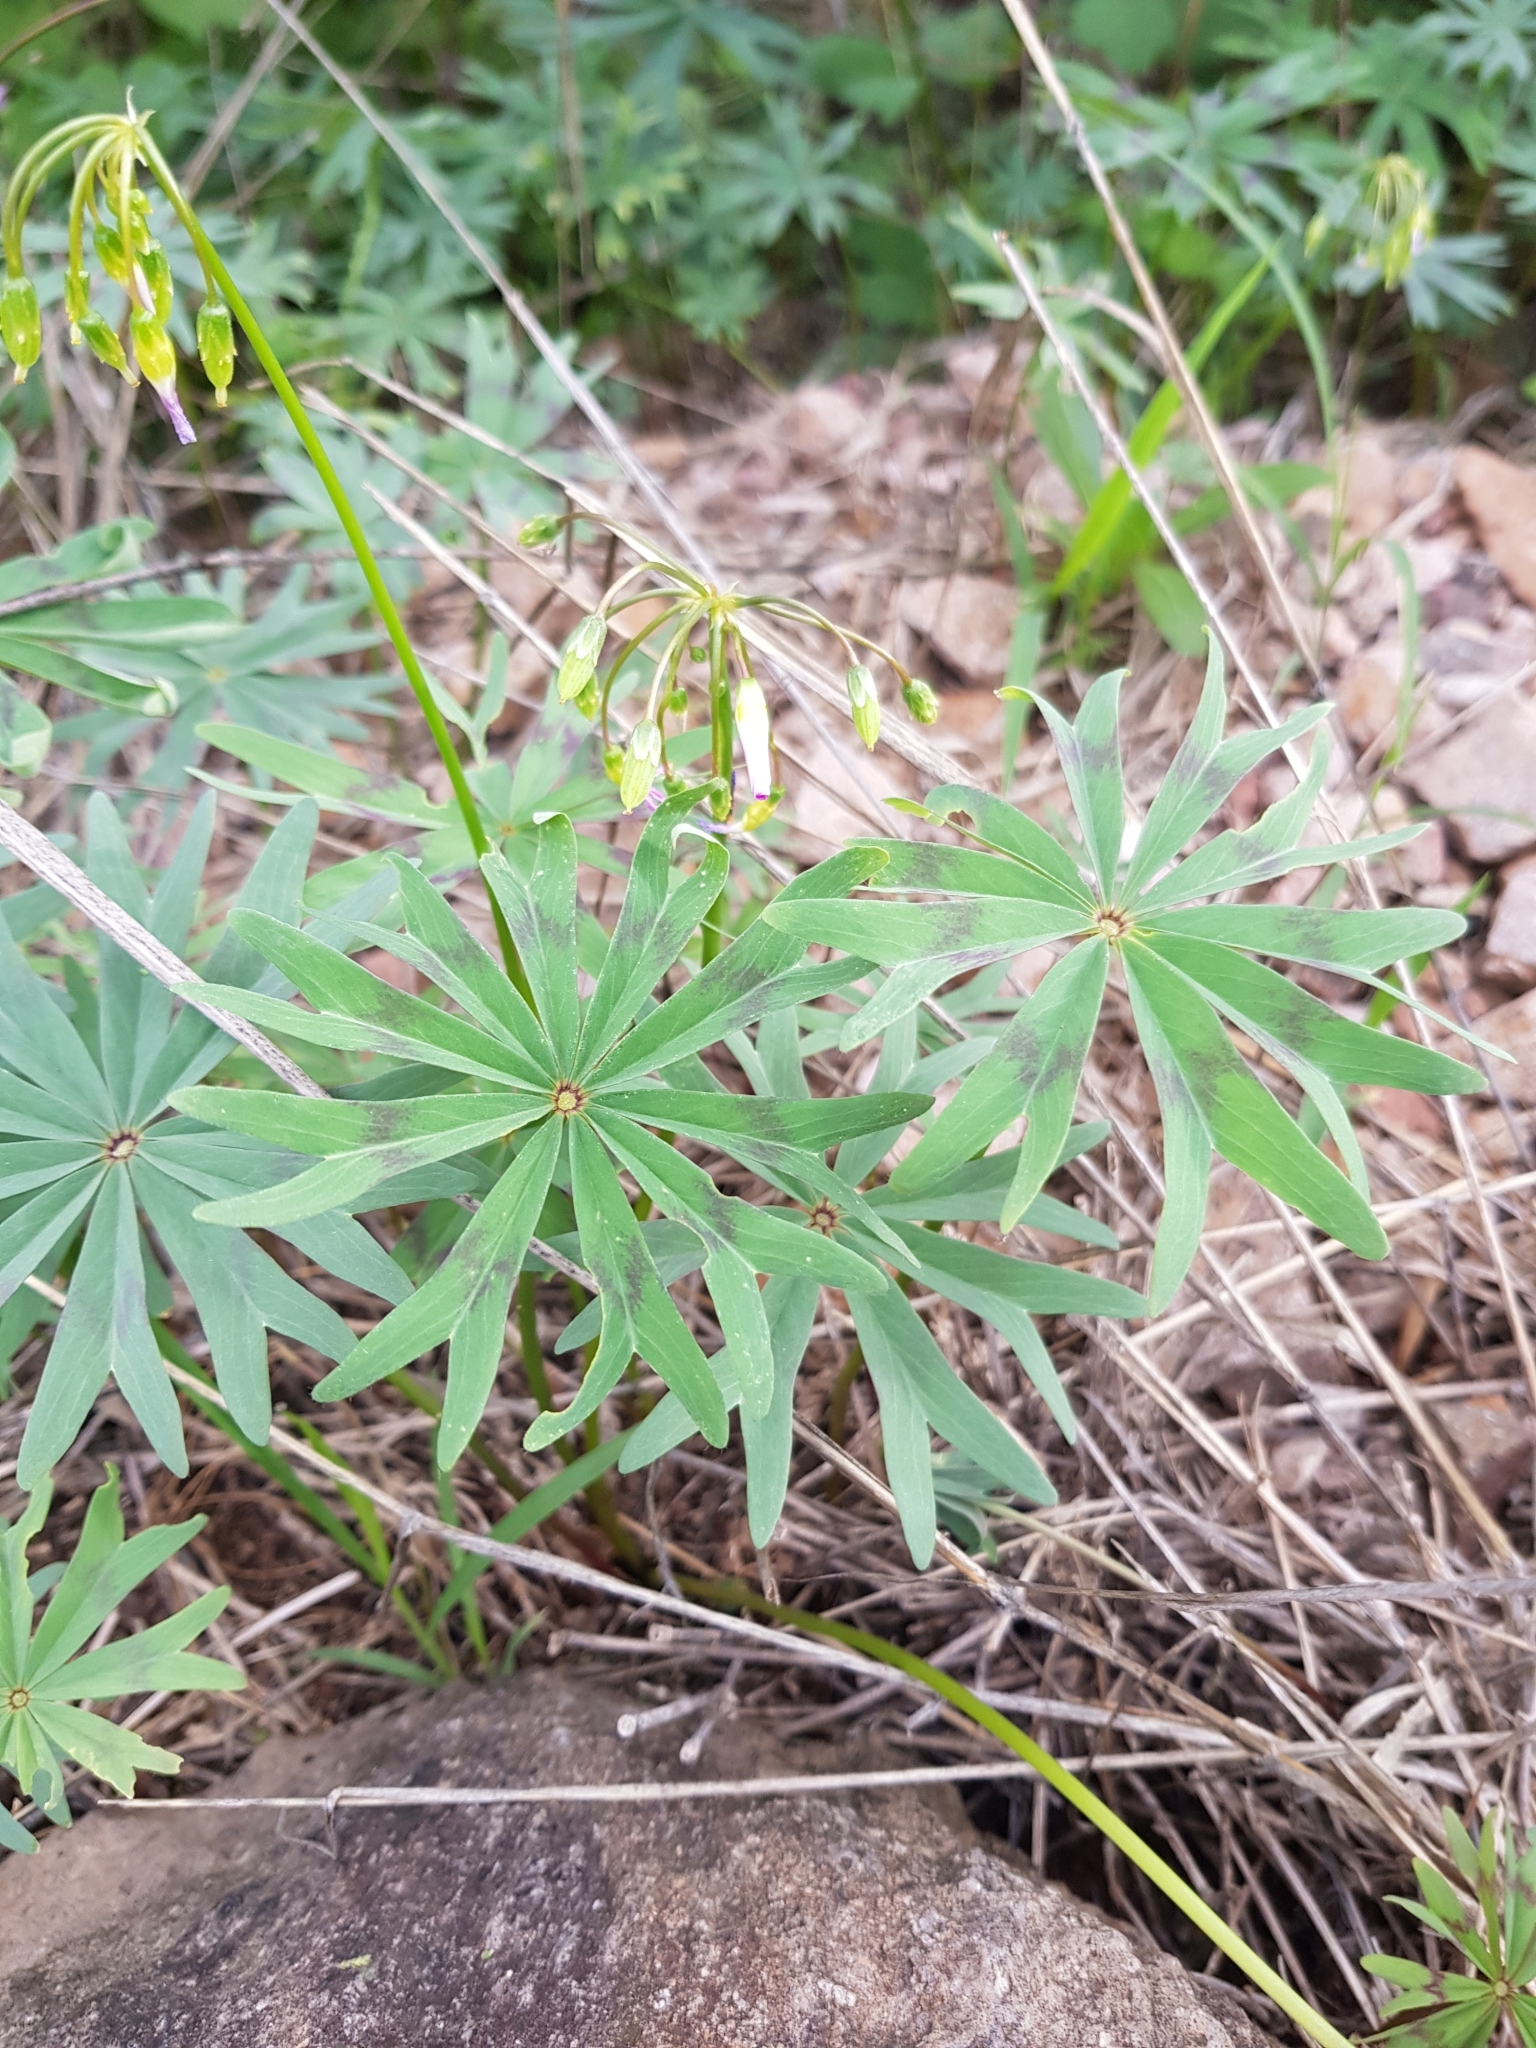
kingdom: Plantae
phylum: Tracheophyta
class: Magnoliopsida
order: Oxalidales
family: Oxalidaceae
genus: Oxalis
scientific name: Oxalis decaphylla
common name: Ten-leaved pink-sorrel
